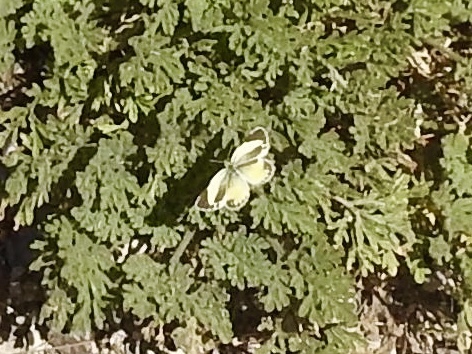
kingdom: Animalia
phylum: Arthropoda
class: Insecta
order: Lepidoptera
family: Pieridae
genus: Nathalis
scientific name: Nathalis iole
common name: Dainty sulphur
